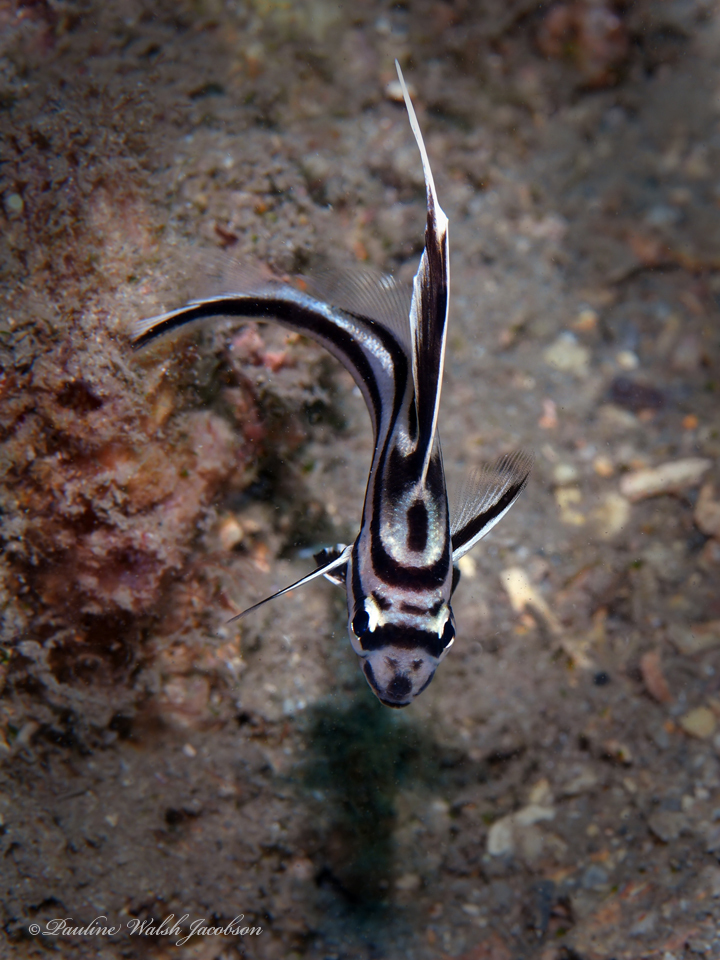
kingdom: Animalia
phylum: Chordata
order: Perciformes
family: Sciaenidae
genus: Pareques
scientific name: Pareques acuminatus
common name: High-hat
